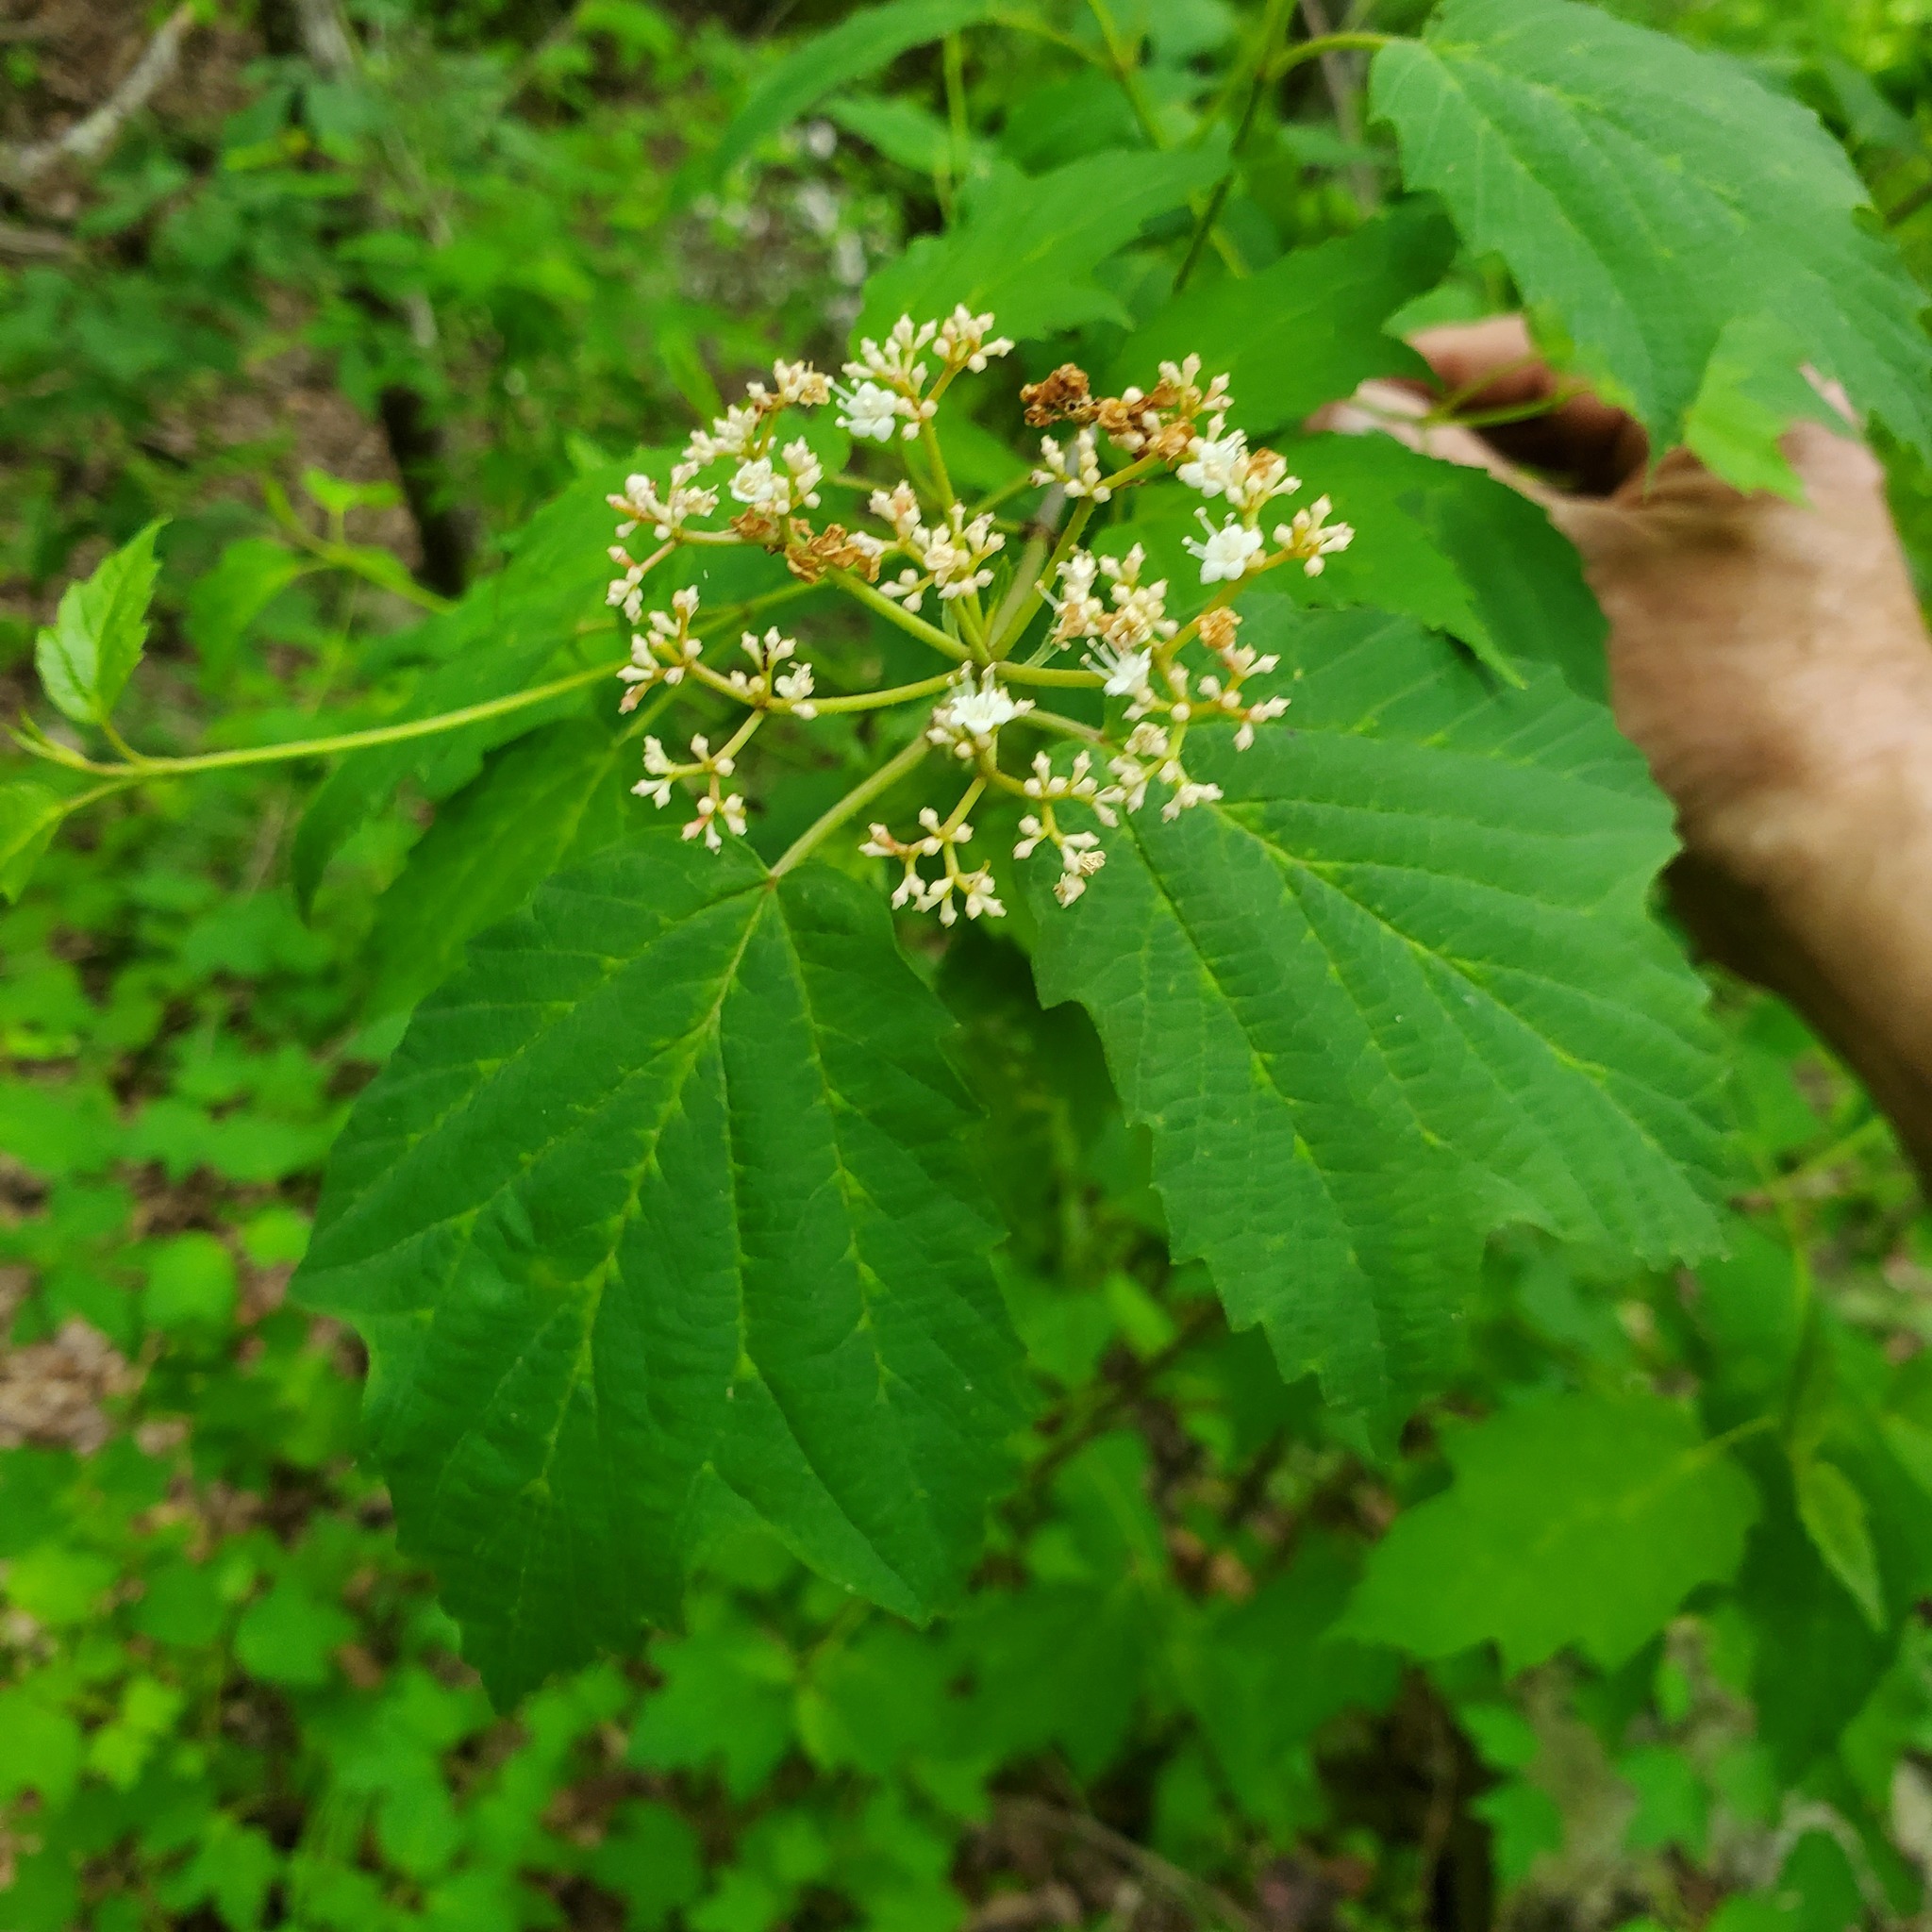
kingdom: Plantae
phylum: Tracheophyta
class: Magnoliopsida
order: Dipsacales
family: Viburnaceae
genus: Viburnum
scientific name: Viburnum acerifolium
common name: Dockmackie
